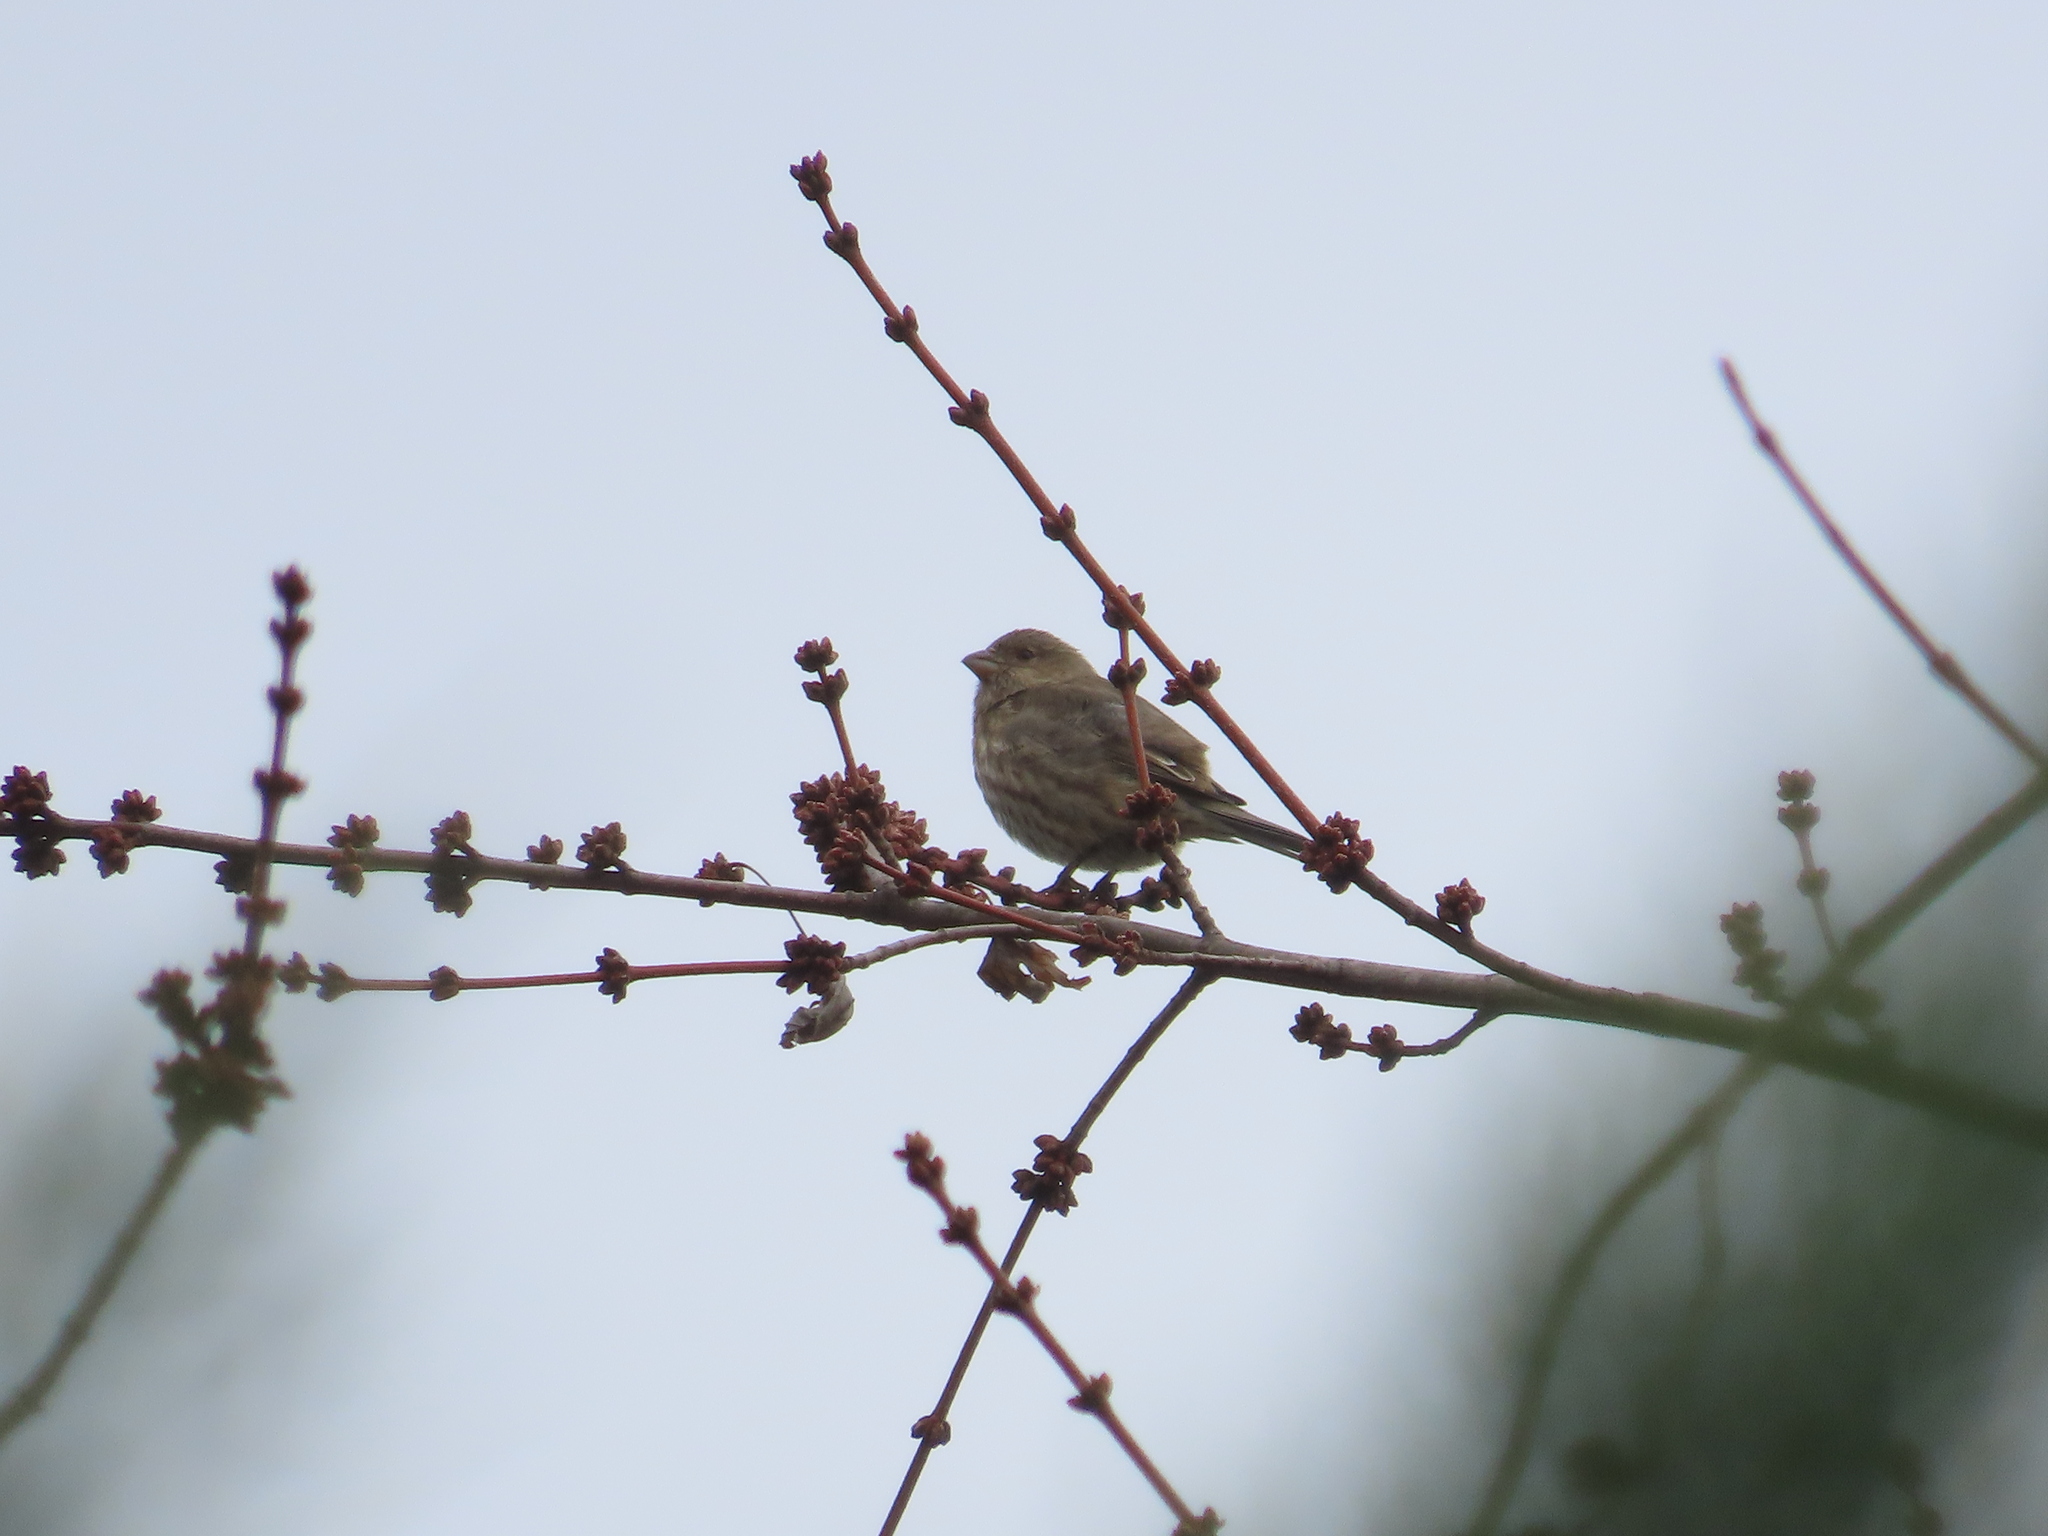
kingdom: Animalia
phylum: Chordata
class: Aves
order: Passeriformes
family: Fringillidae
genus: Haemorhous
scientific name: Haemorhous mexicanus
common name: House finch
